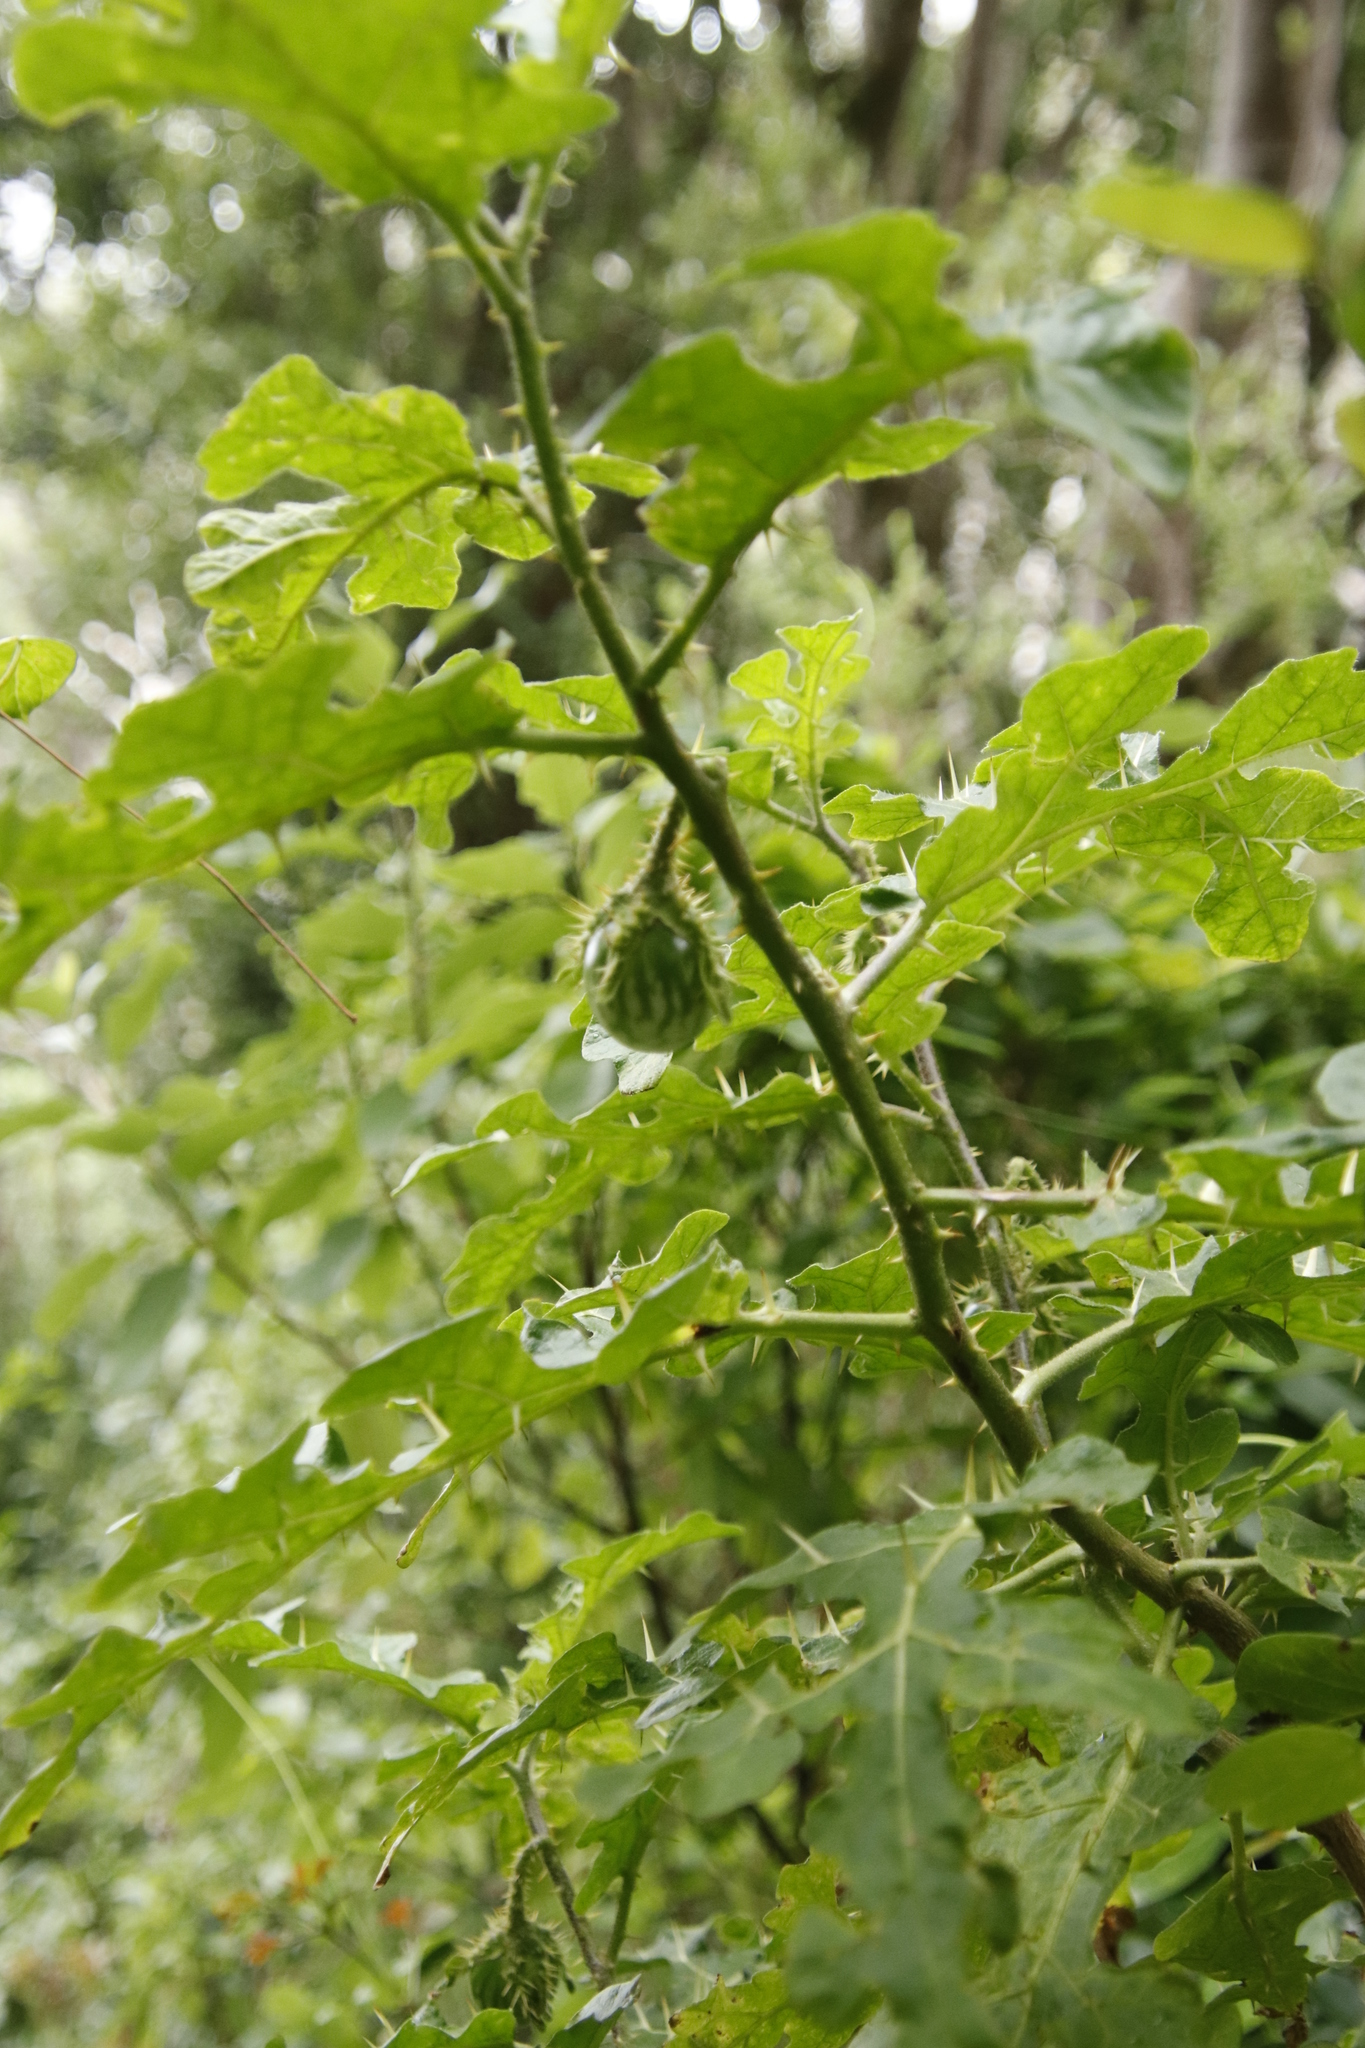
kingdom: Plantae
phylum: Tracheophyta
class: Magnoliopsida
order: Solanales
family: Solanaceae
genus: Solanum
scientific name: Solanum linnaeanum
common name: Nightshade
